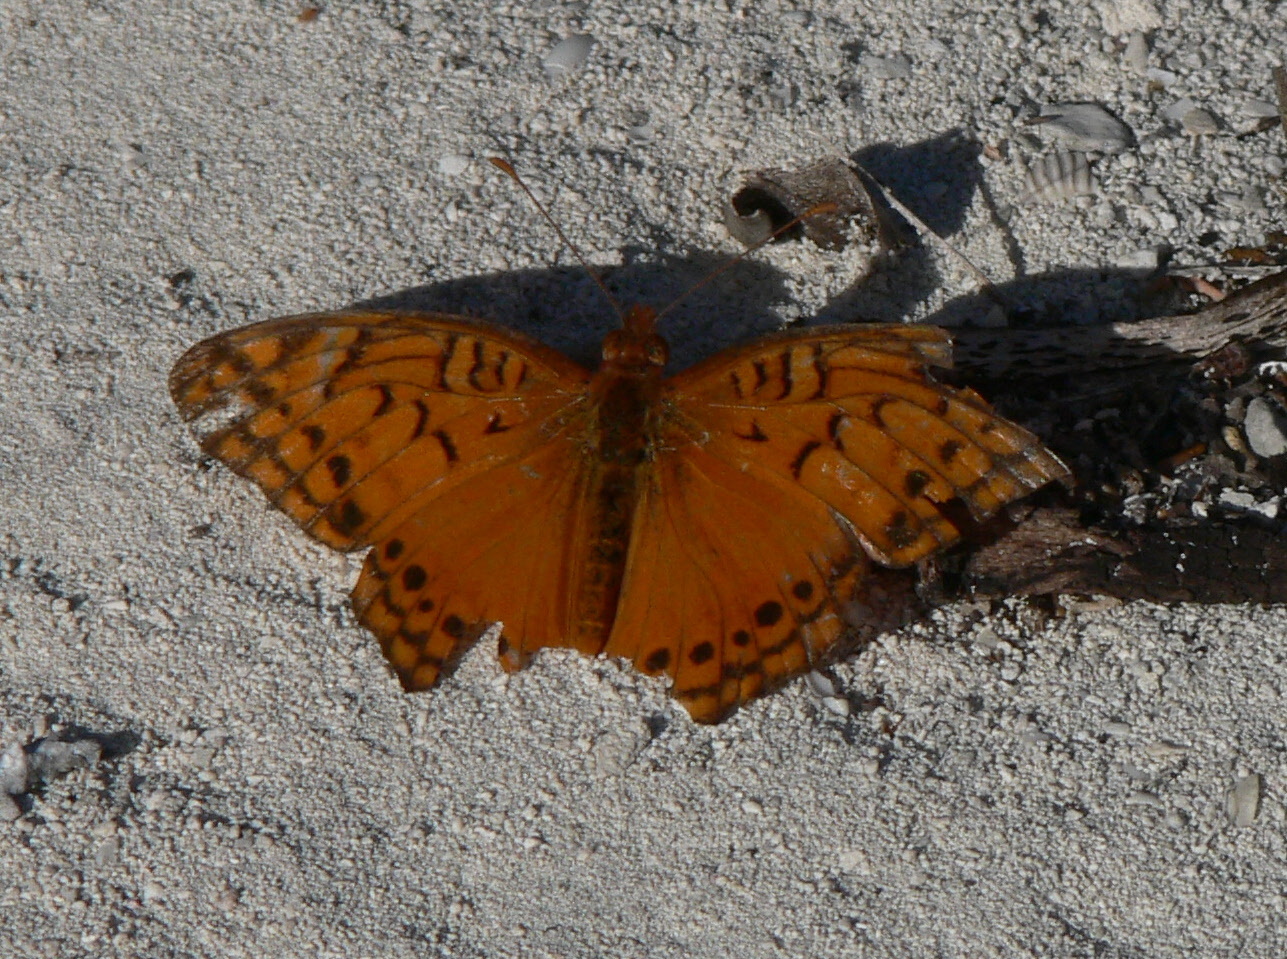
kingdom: Animalia
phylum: Arthropoda
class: Insecta
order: Lepidoptera
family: Nymphalidae
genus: Euptoieta
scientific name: Euptoieta hegesia
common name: Mexican fritillary
